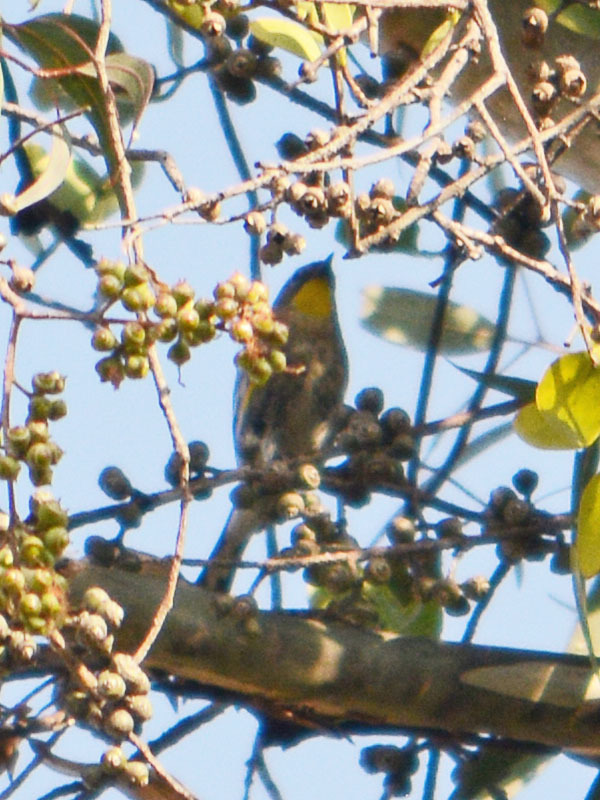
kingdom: Animalia
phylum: Chordata
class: Aves
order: Passeriformes
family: Parulidae
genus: Setophaga
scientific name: Setophaga coronata
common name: Myrtle warbler
